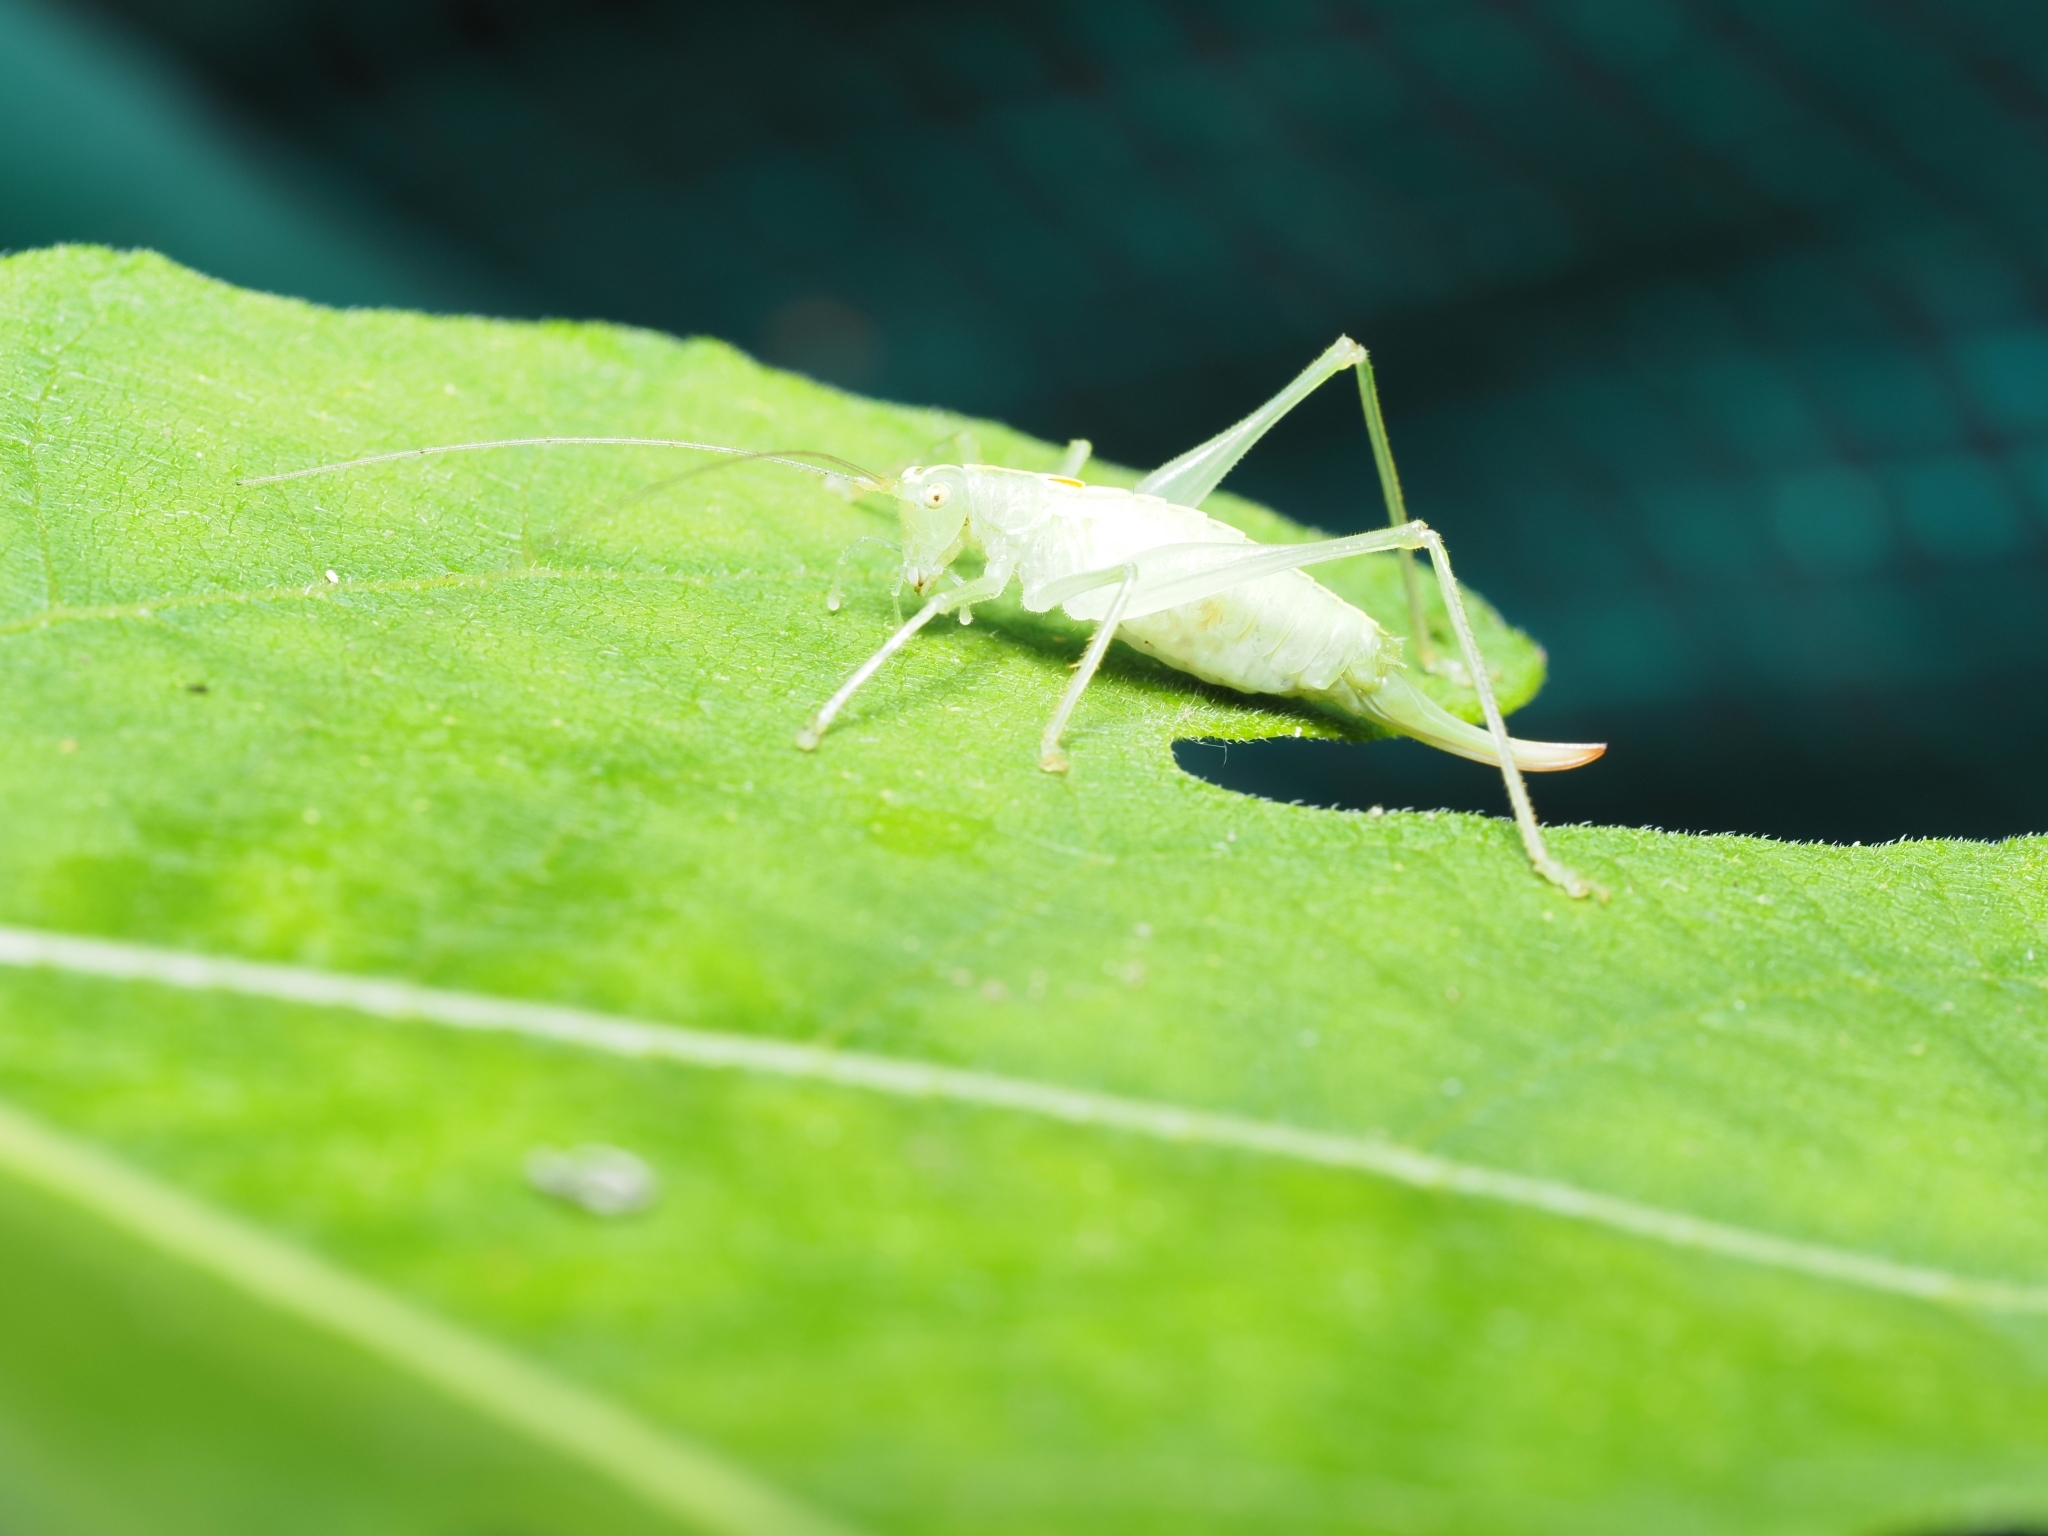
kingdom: Animalia
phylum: Arthropoda
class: Insecta
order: Orthoptera
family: Tettigoniidae
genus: Meconema
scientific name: Meconema meridionale
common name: Southern oak bush-cricket
